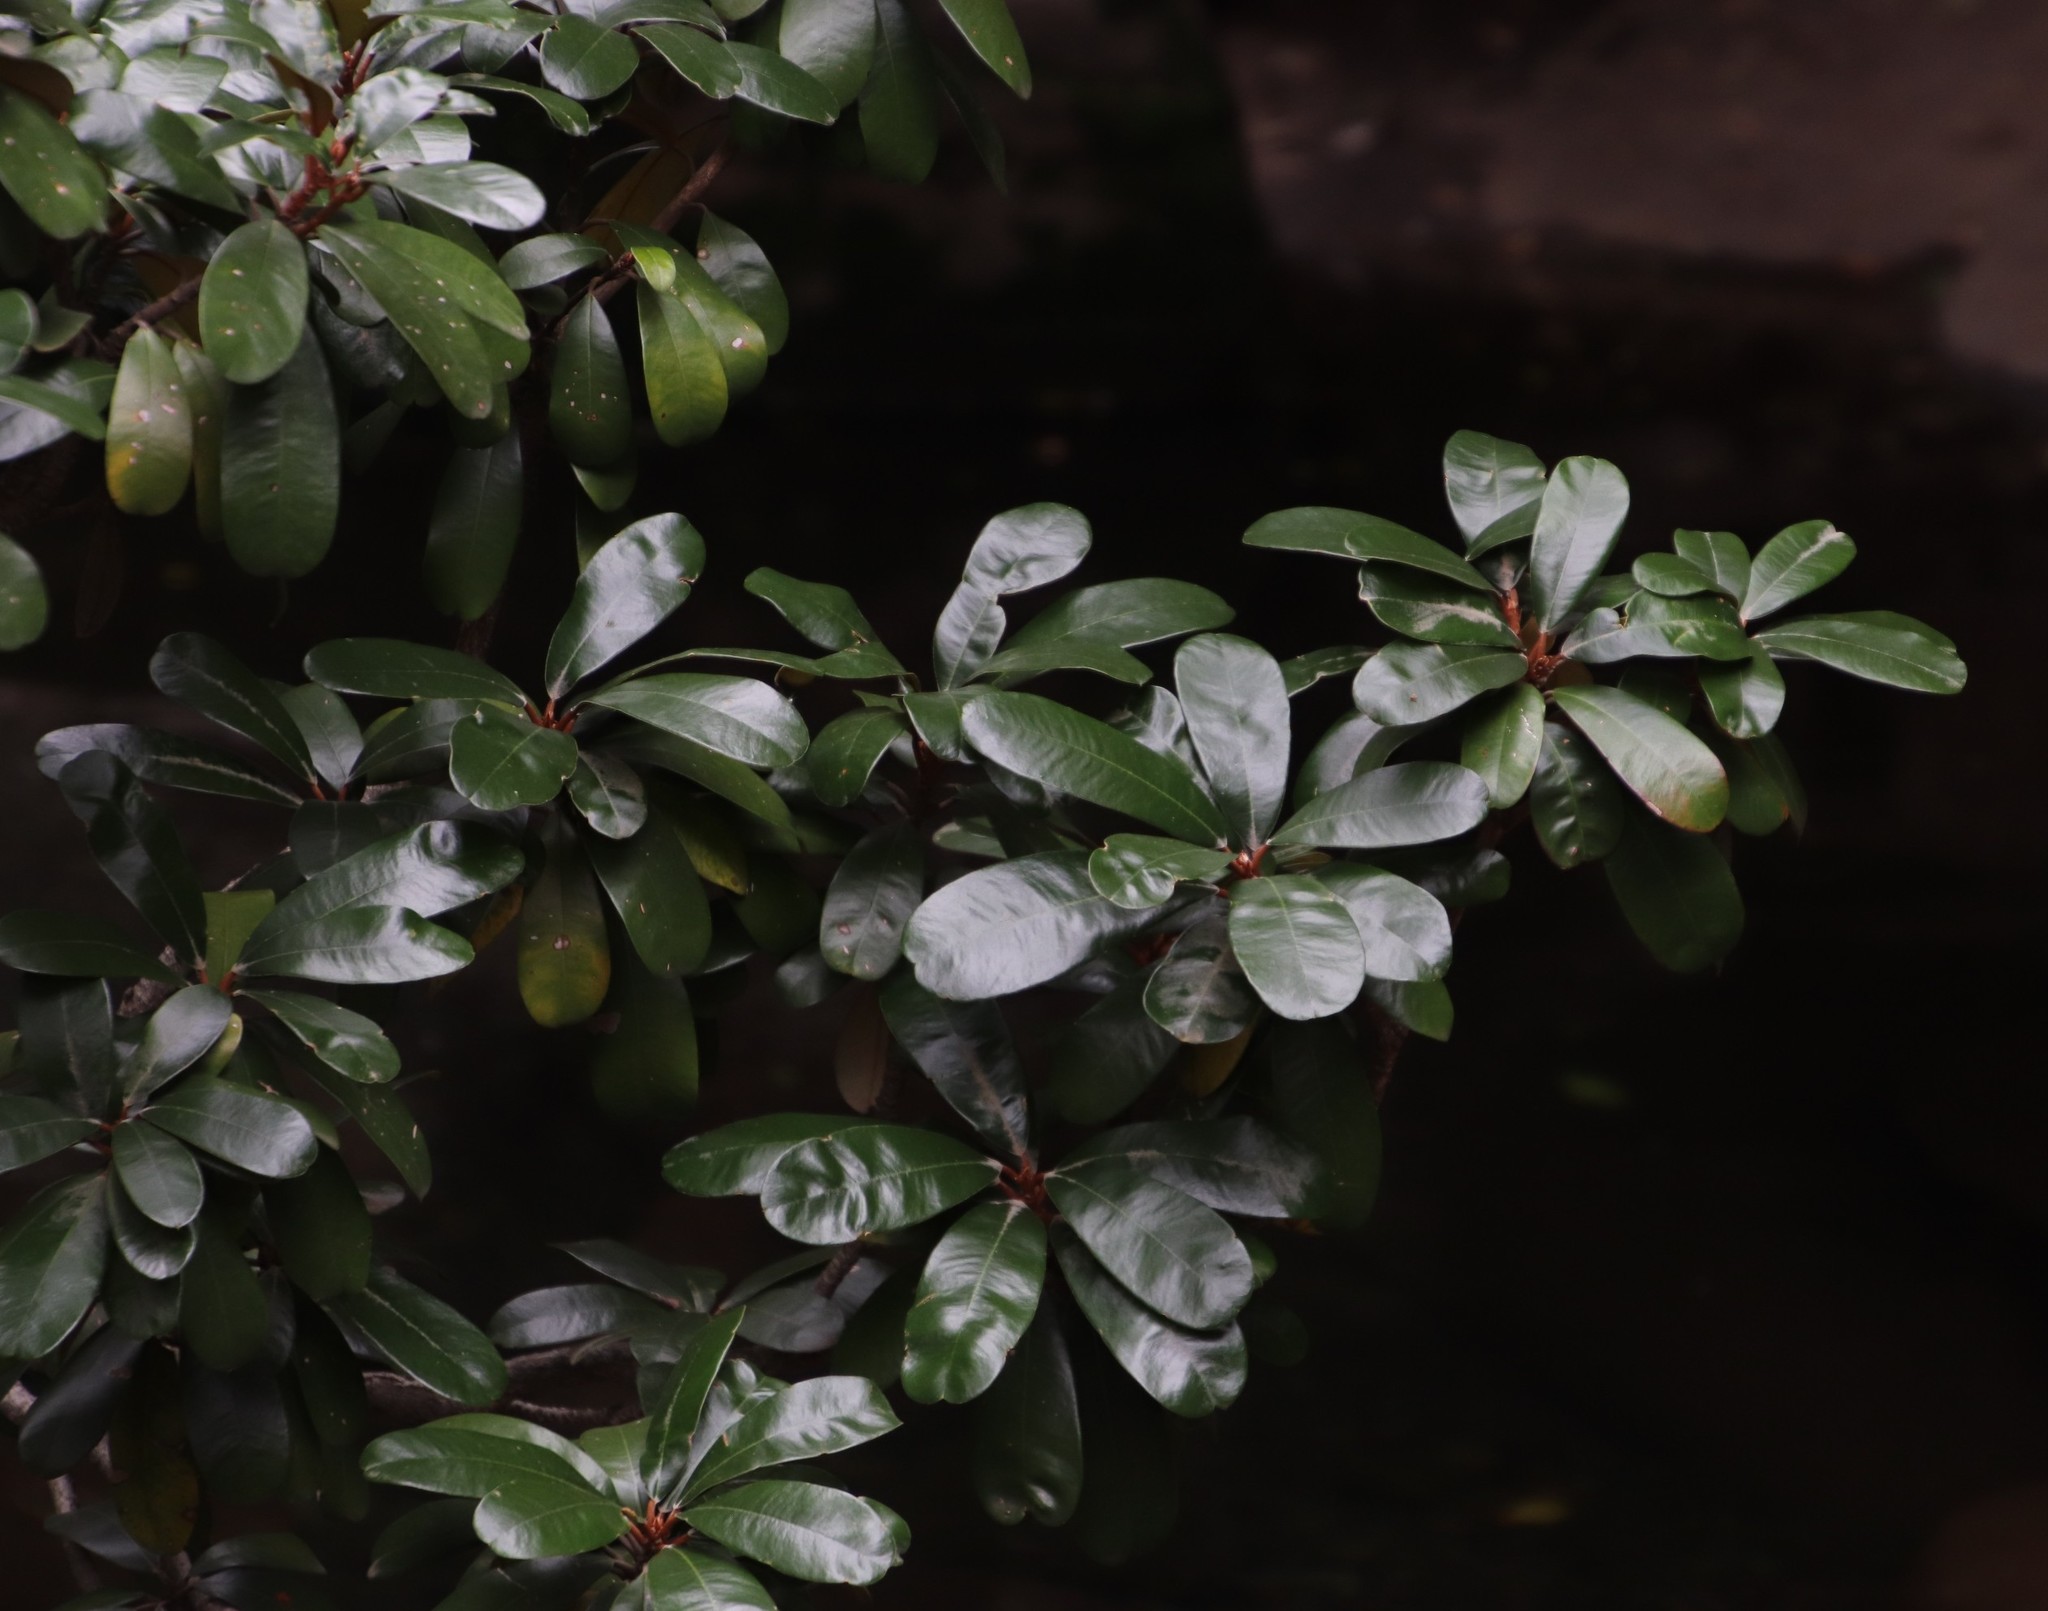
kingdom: Plantae
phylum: Tracheophyta
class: Magnoliopsida
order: Ericales
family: Sapotaceae
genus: Mimusops
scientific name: Mimusops zeyheri
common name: Transvaal red milkwood
